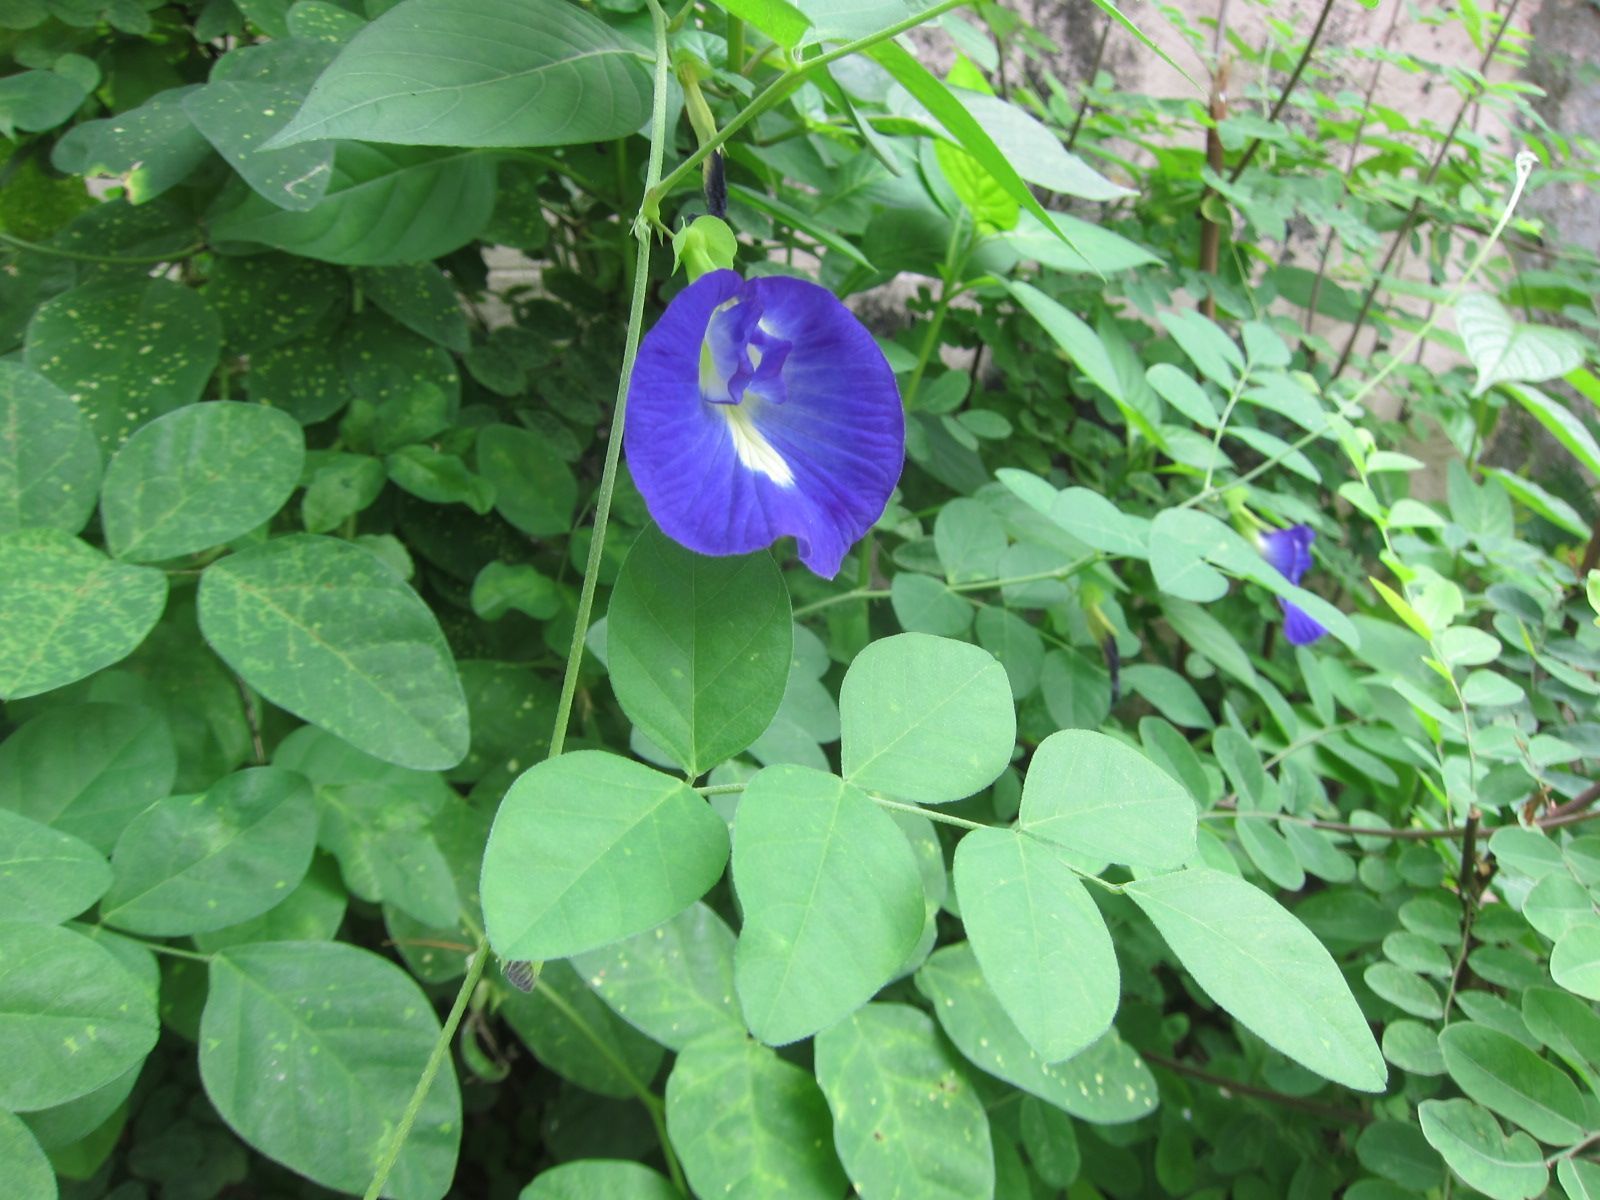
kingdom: Plantae
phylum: Tracheophyta
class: Magnoliopsida
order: Fabales
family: Fabaceae
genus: Clitoria
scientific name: Clitoria ternatea
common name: Asian pigeonwings
